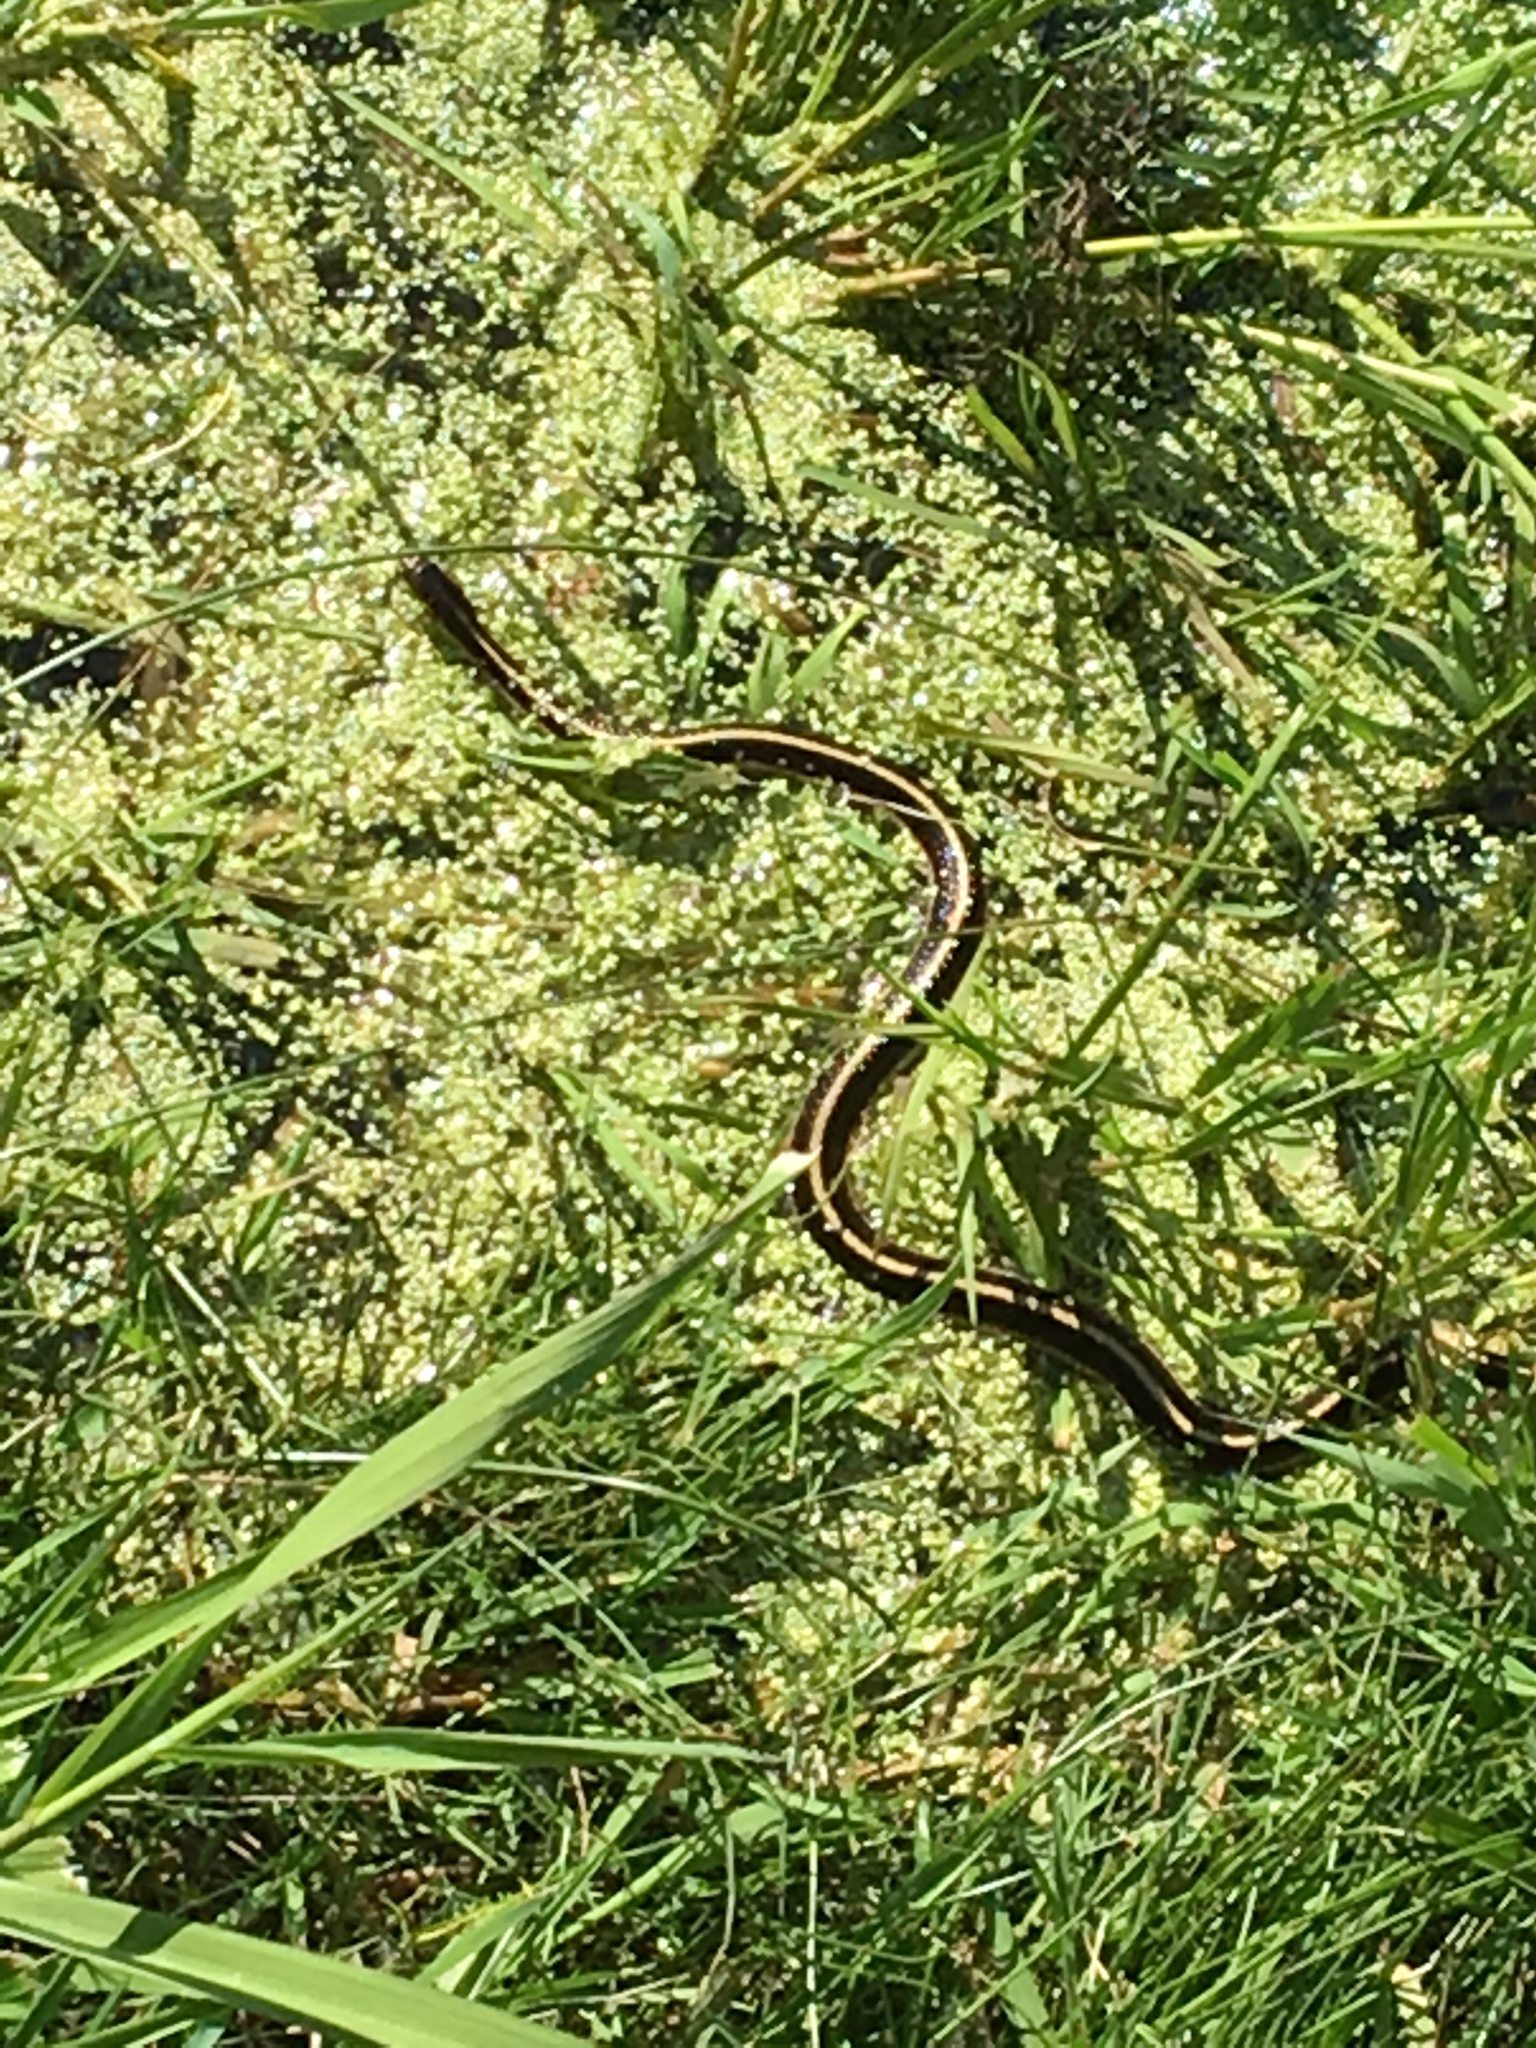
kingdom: Animalia
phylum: Chordata
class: Squamata
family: Colubridae
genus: Thamnophis
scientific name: Thamnophis sirtalis
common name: Common garter snake
